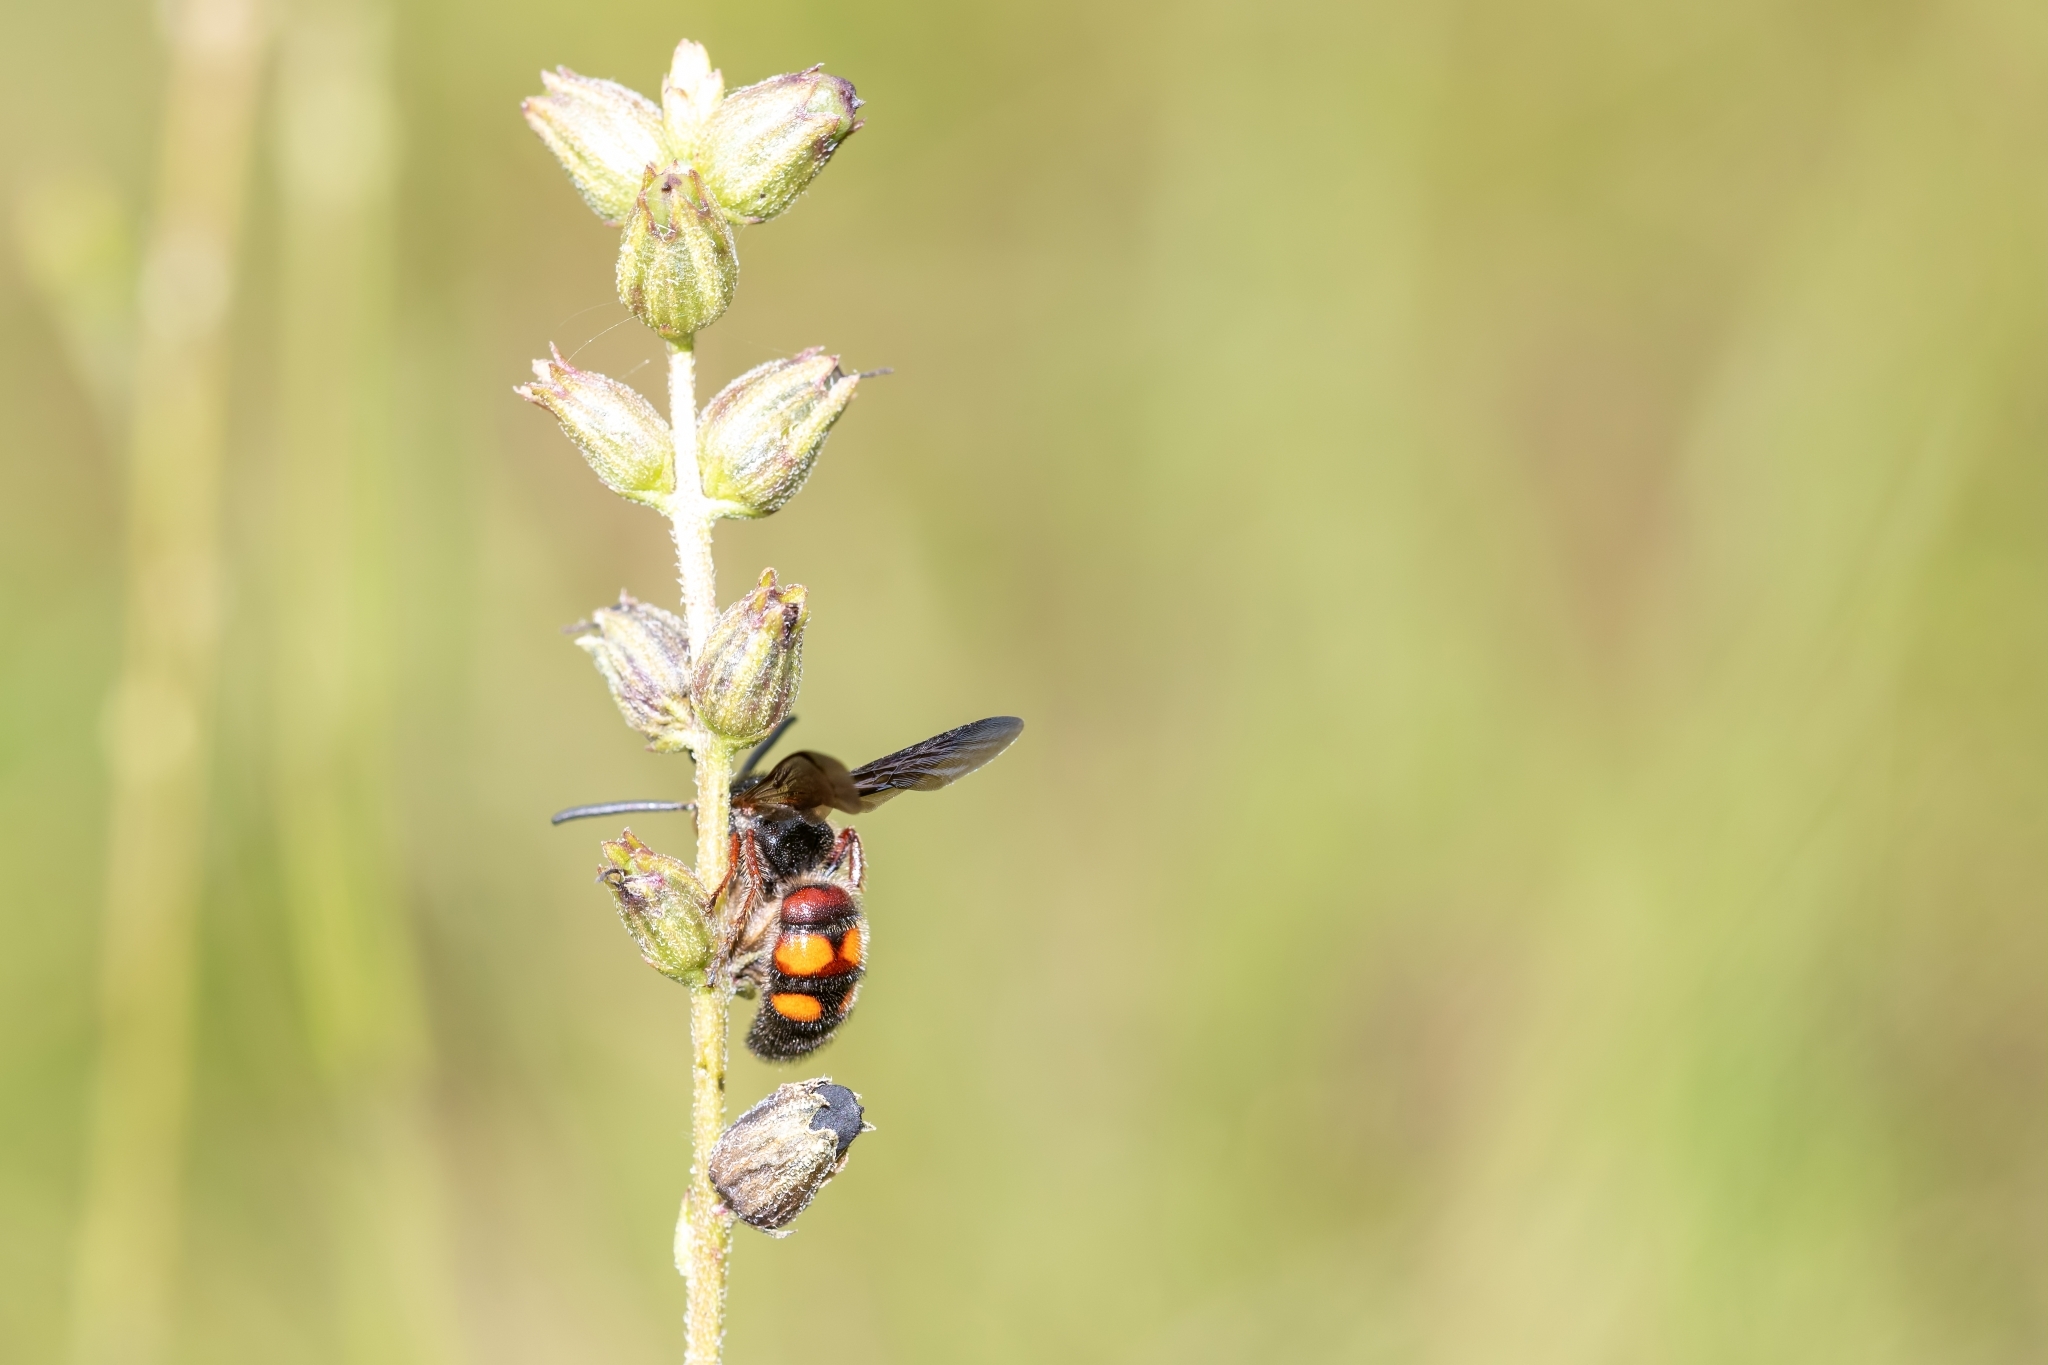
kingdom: Animalia
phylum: Arthropoda
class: Insecta
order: Hymenoptera
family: Scoliidae
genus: Scolia
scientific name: Scolia nobilitata
